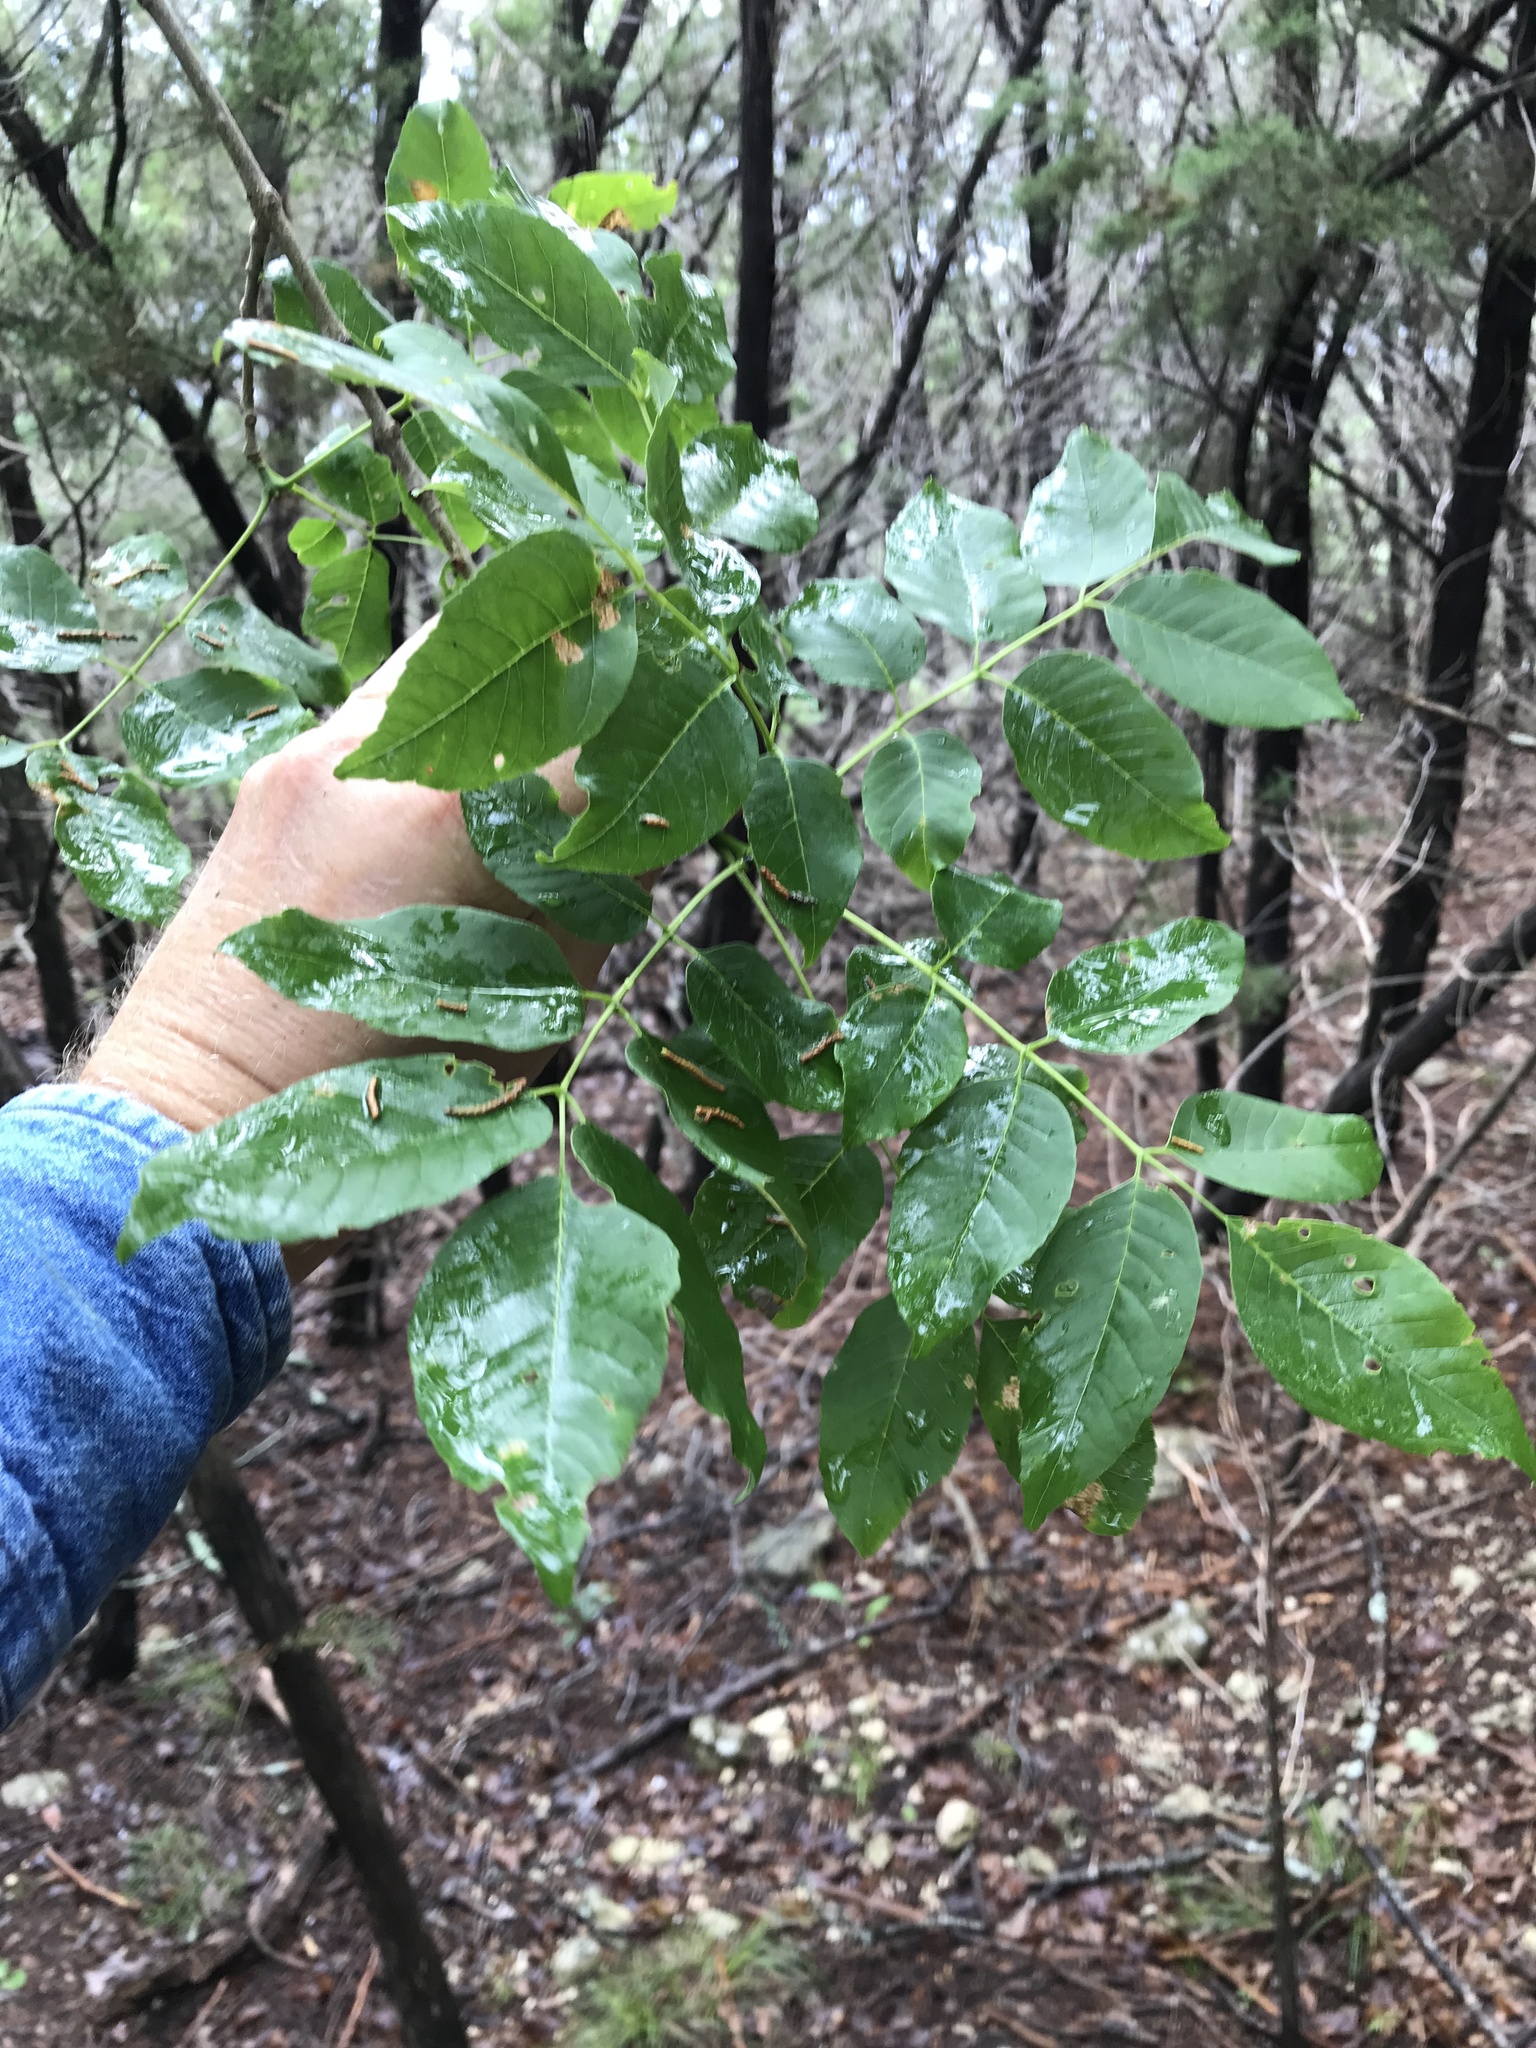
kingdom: Plantae
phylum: Tracheophyta
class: Magnoliopsida
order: Lamiales
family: Oleaceae
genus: Fraxinus
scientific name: Fraxinus albicans
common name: Texas ash
